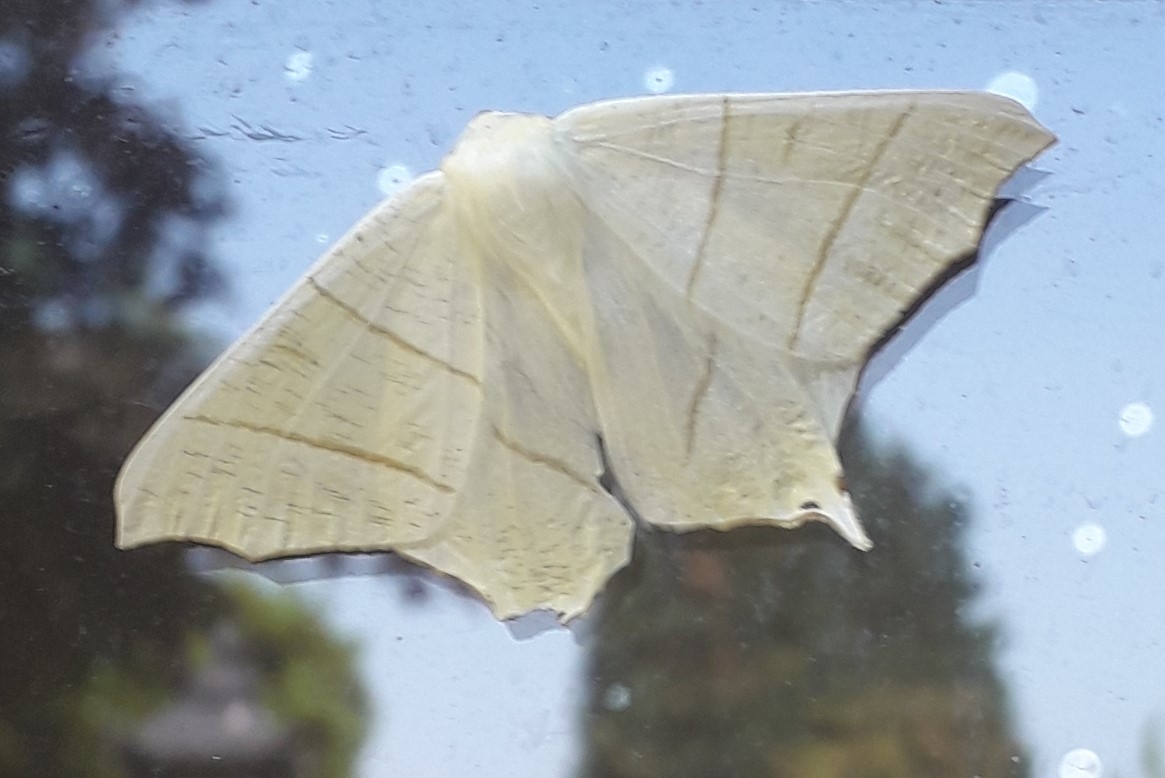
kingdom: Animalia
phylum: Arthropoda
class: Insecta
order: Lepidoptera
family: Geometridae
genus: Ourapteryx
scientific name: Ourapteryx sambucaria
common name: Swallow-tailed moth
